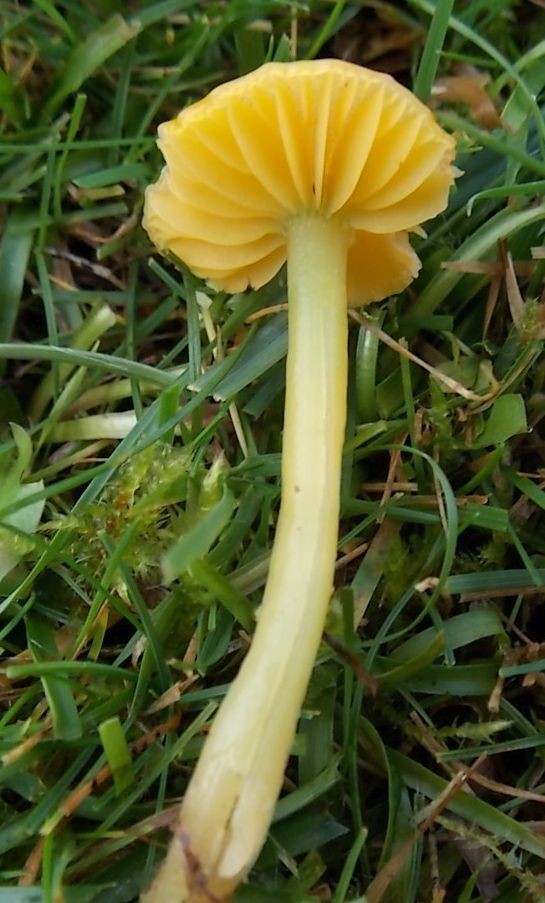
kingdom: Fungi
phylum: Basidiomycota
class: Agaricomycetes
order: Agaricales
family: Hygrophoraceae
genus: Gliophorus
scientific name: Gliophorus psittacinus
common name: Parrot wax-cap
